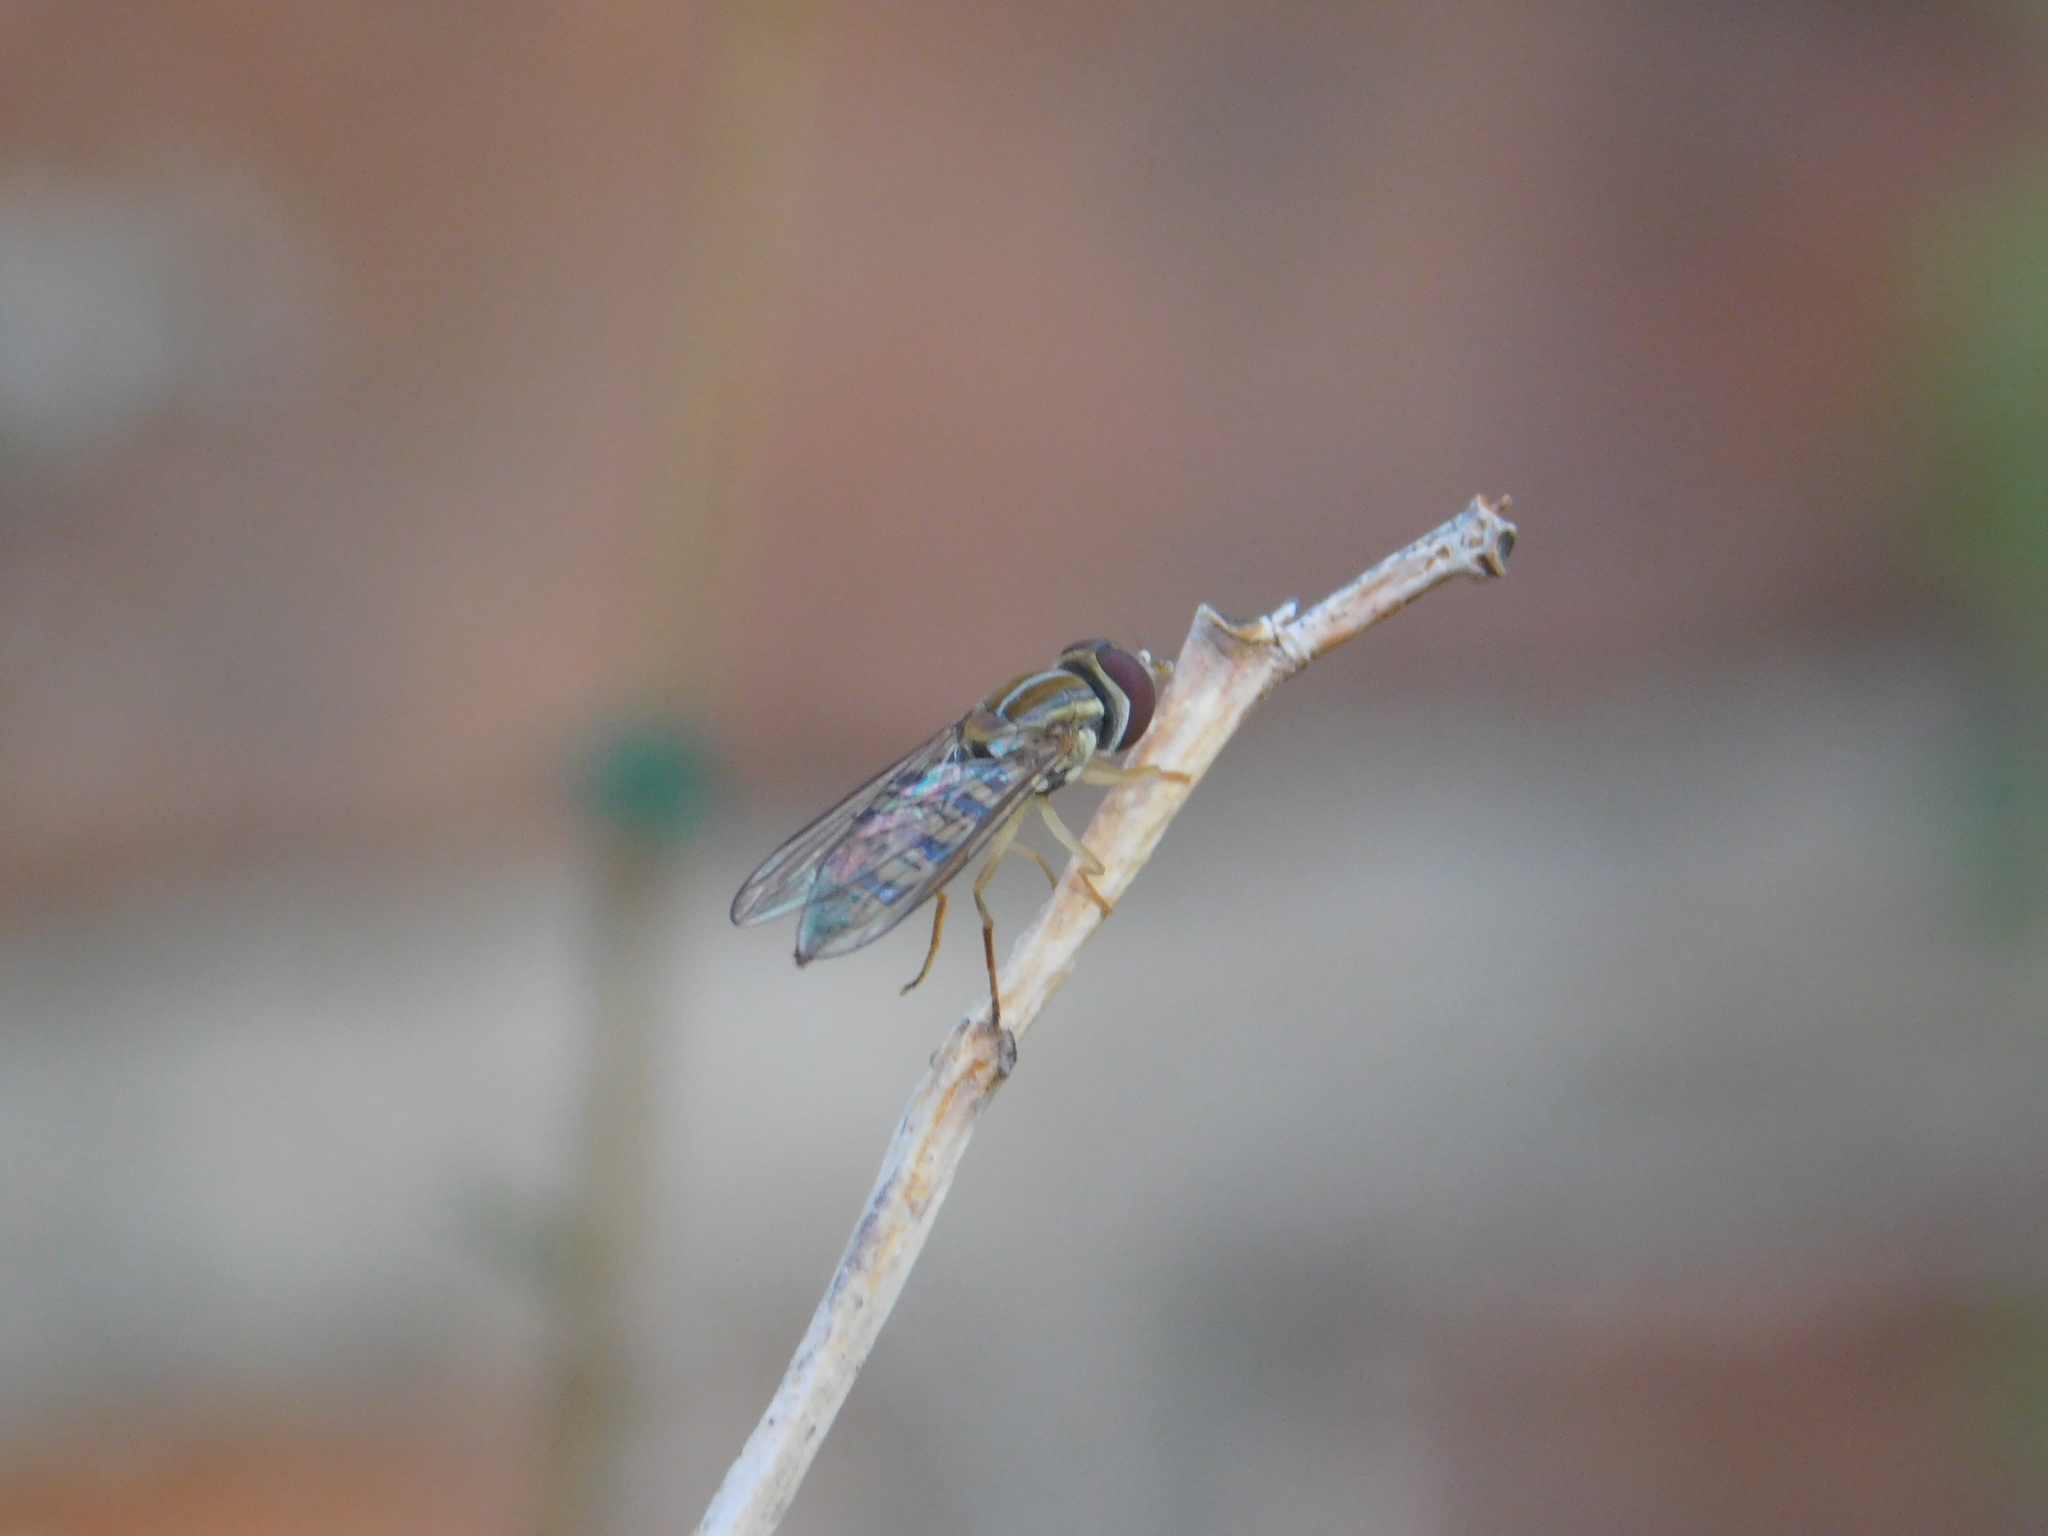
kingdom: Animalia
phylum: Arthropoda
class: Insecta
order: Diptera
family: Syrphidae
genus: Toxomerus
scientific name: Toxomerus politus
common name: Maize calligrapher
